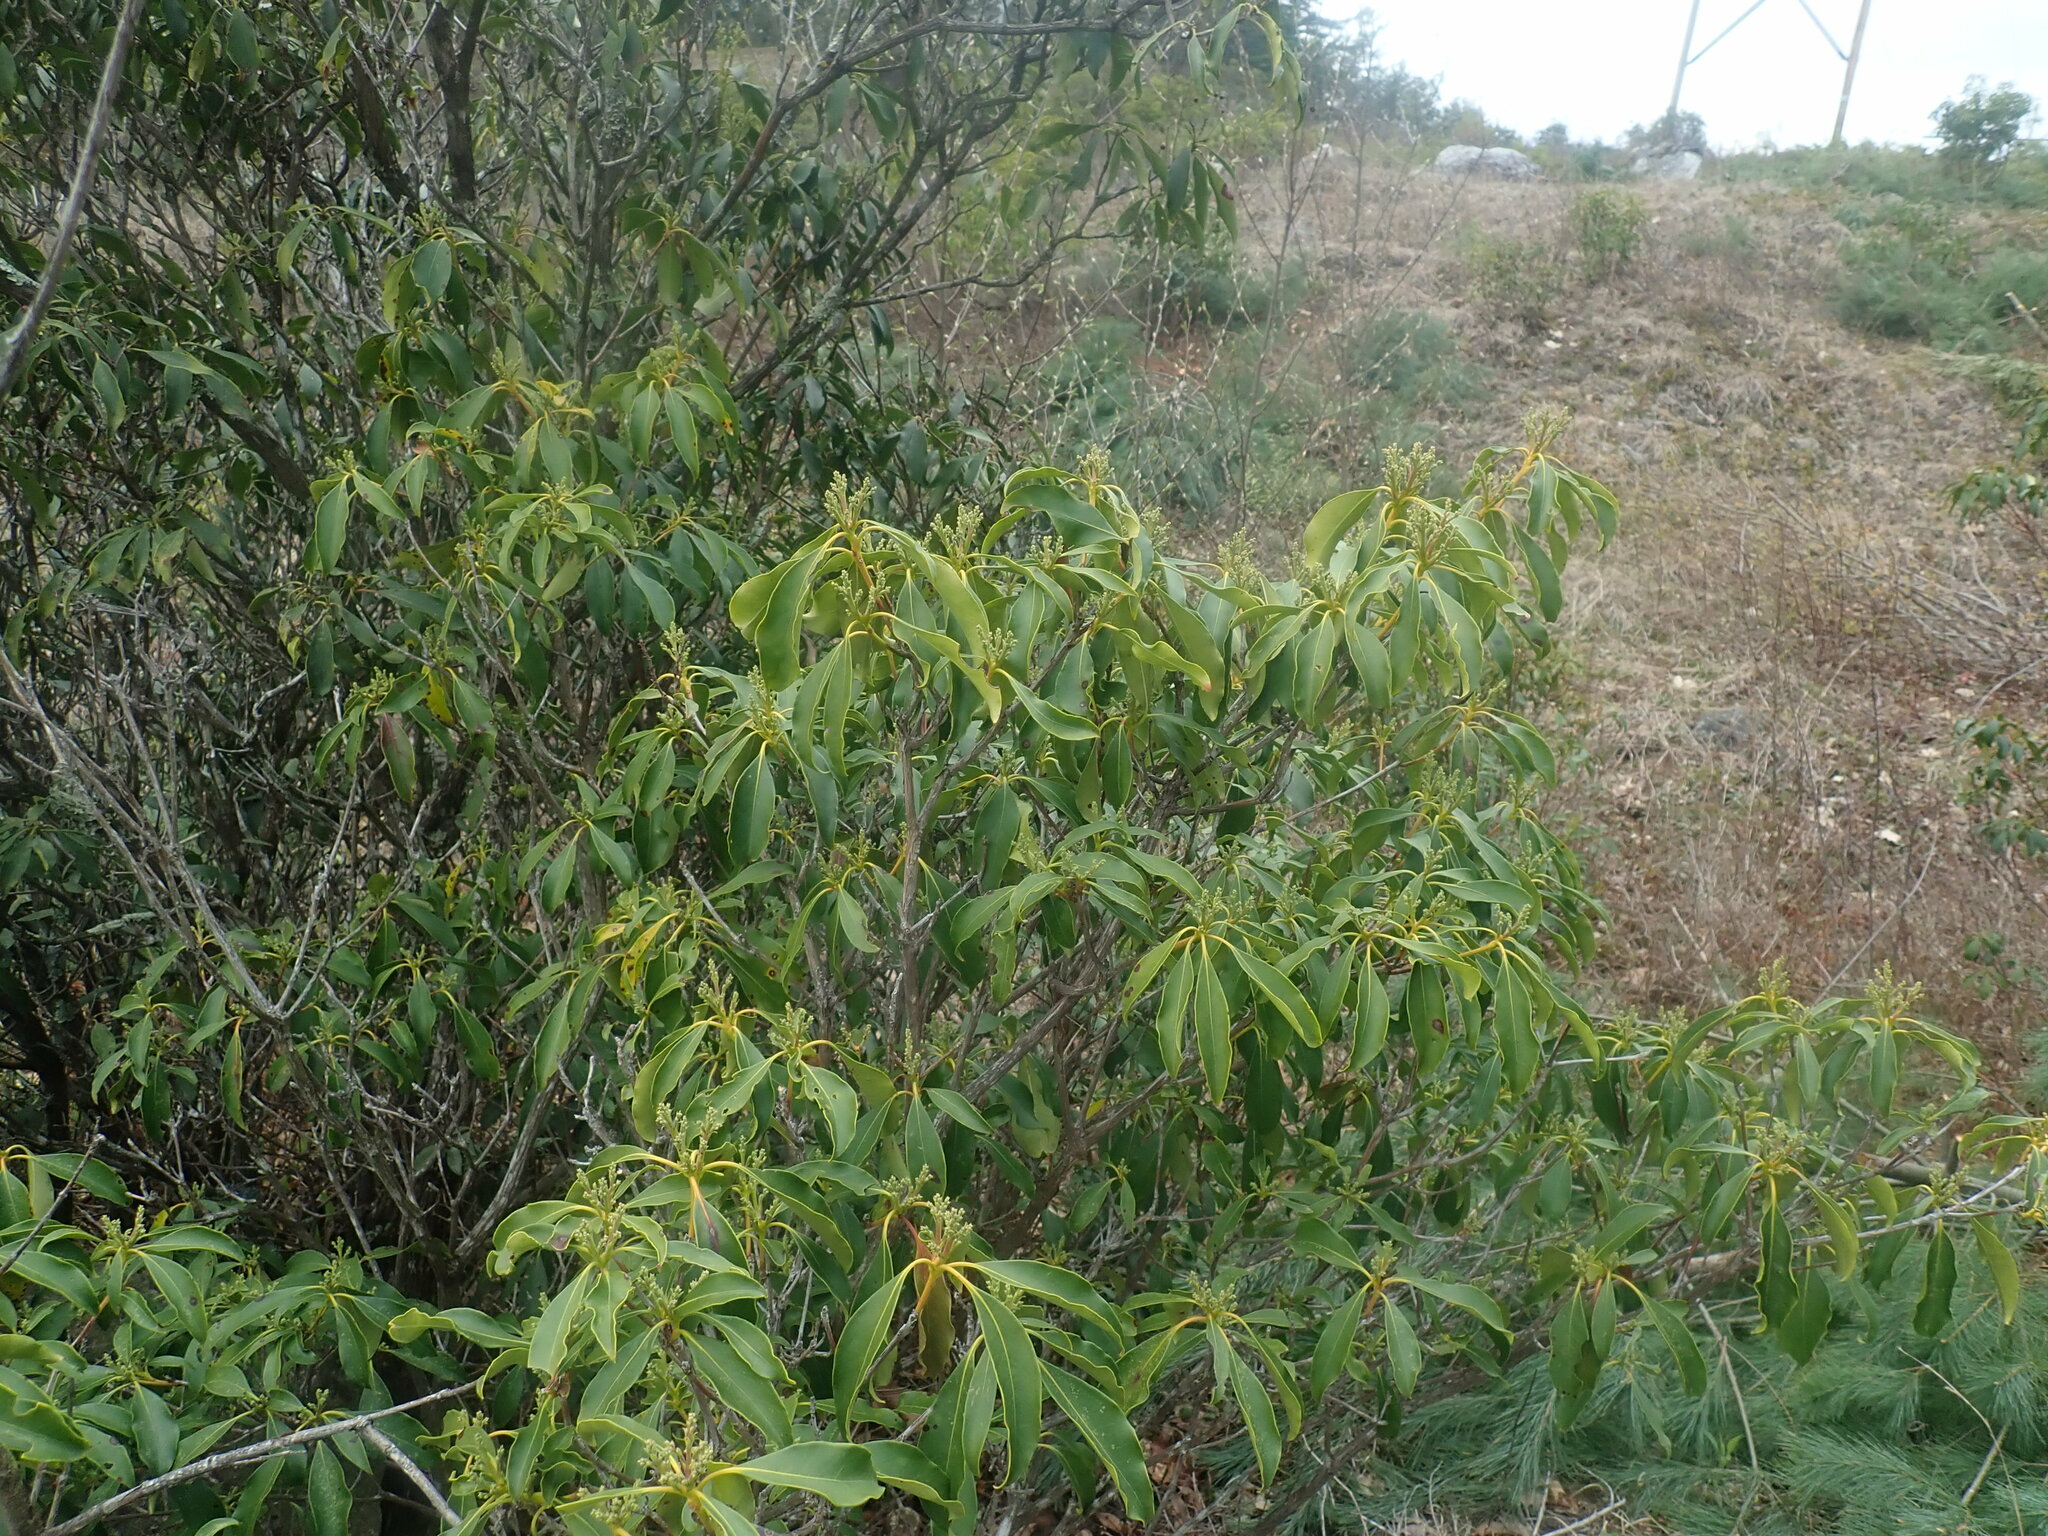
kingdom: Plantae
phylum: Tracheophyta
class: Magnoliopsida
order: Ericales
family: Ericaceae
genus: Kalmia
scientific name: Kalmia latifolia
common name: Mountain-laurel
